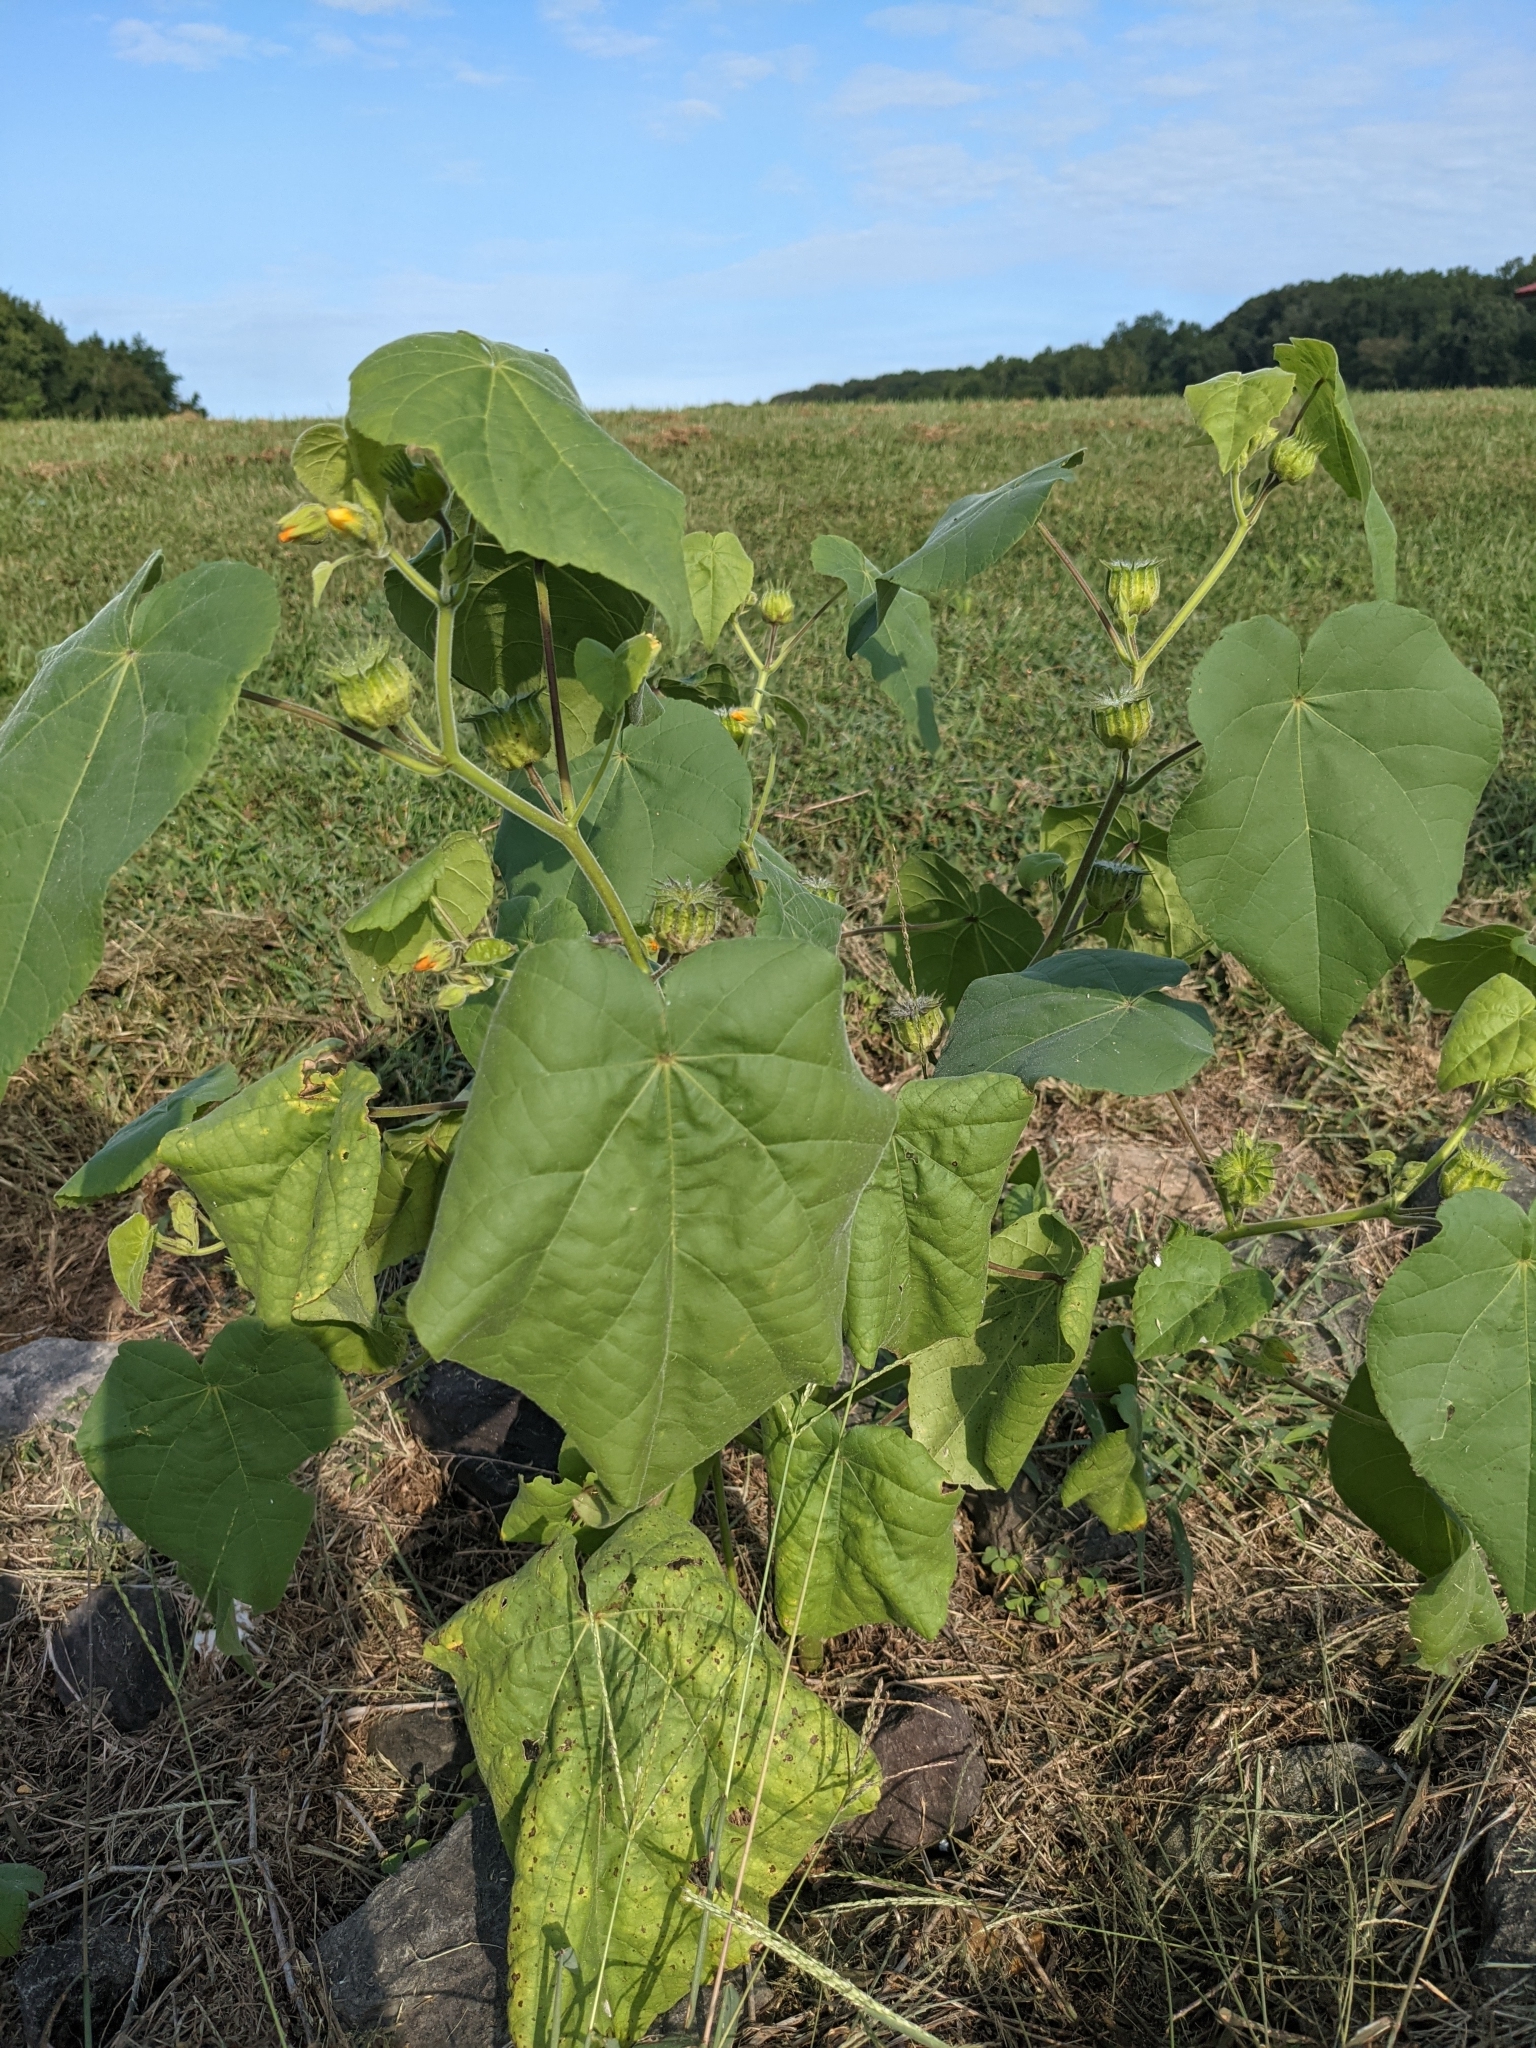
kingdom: Plantae
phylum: Tracheophyta
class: Magnoliopsida
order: Malvales
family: Malvaceae
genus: Abutilon
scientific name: Abutilon theophrasti
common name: Velvetleaf
